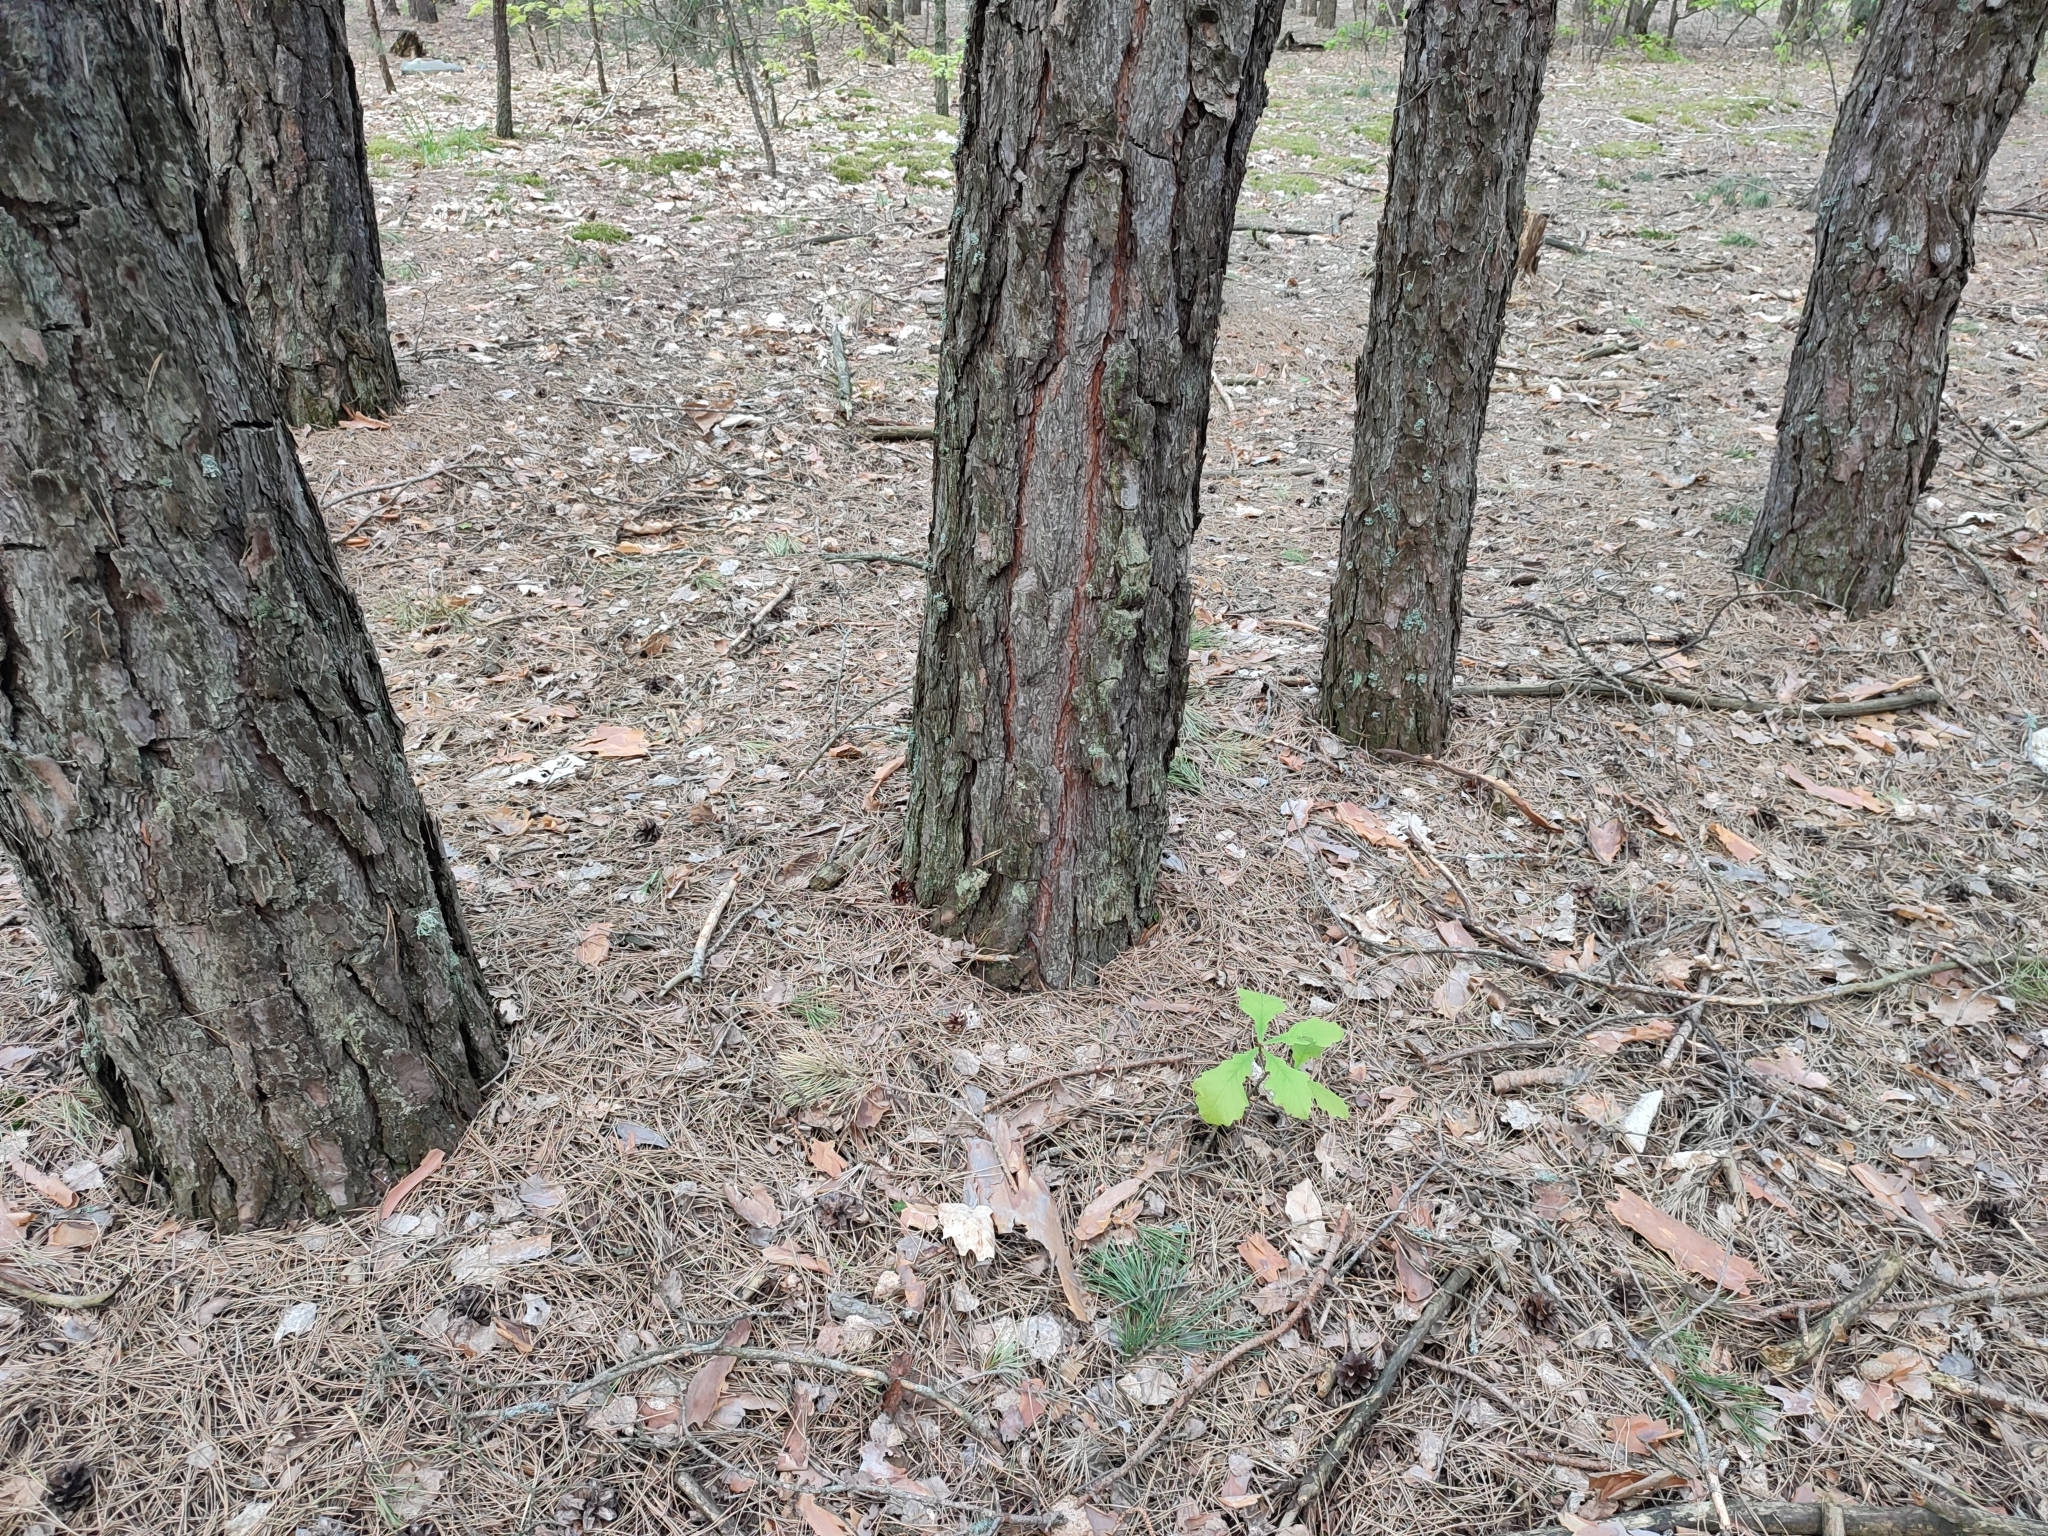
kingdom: Plantae
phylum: Tracheophyta
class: Magnoliopsida
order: Fagales
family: Fagaceae
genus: Quercus
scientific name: Quercus robur
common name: Pedunculate oak
